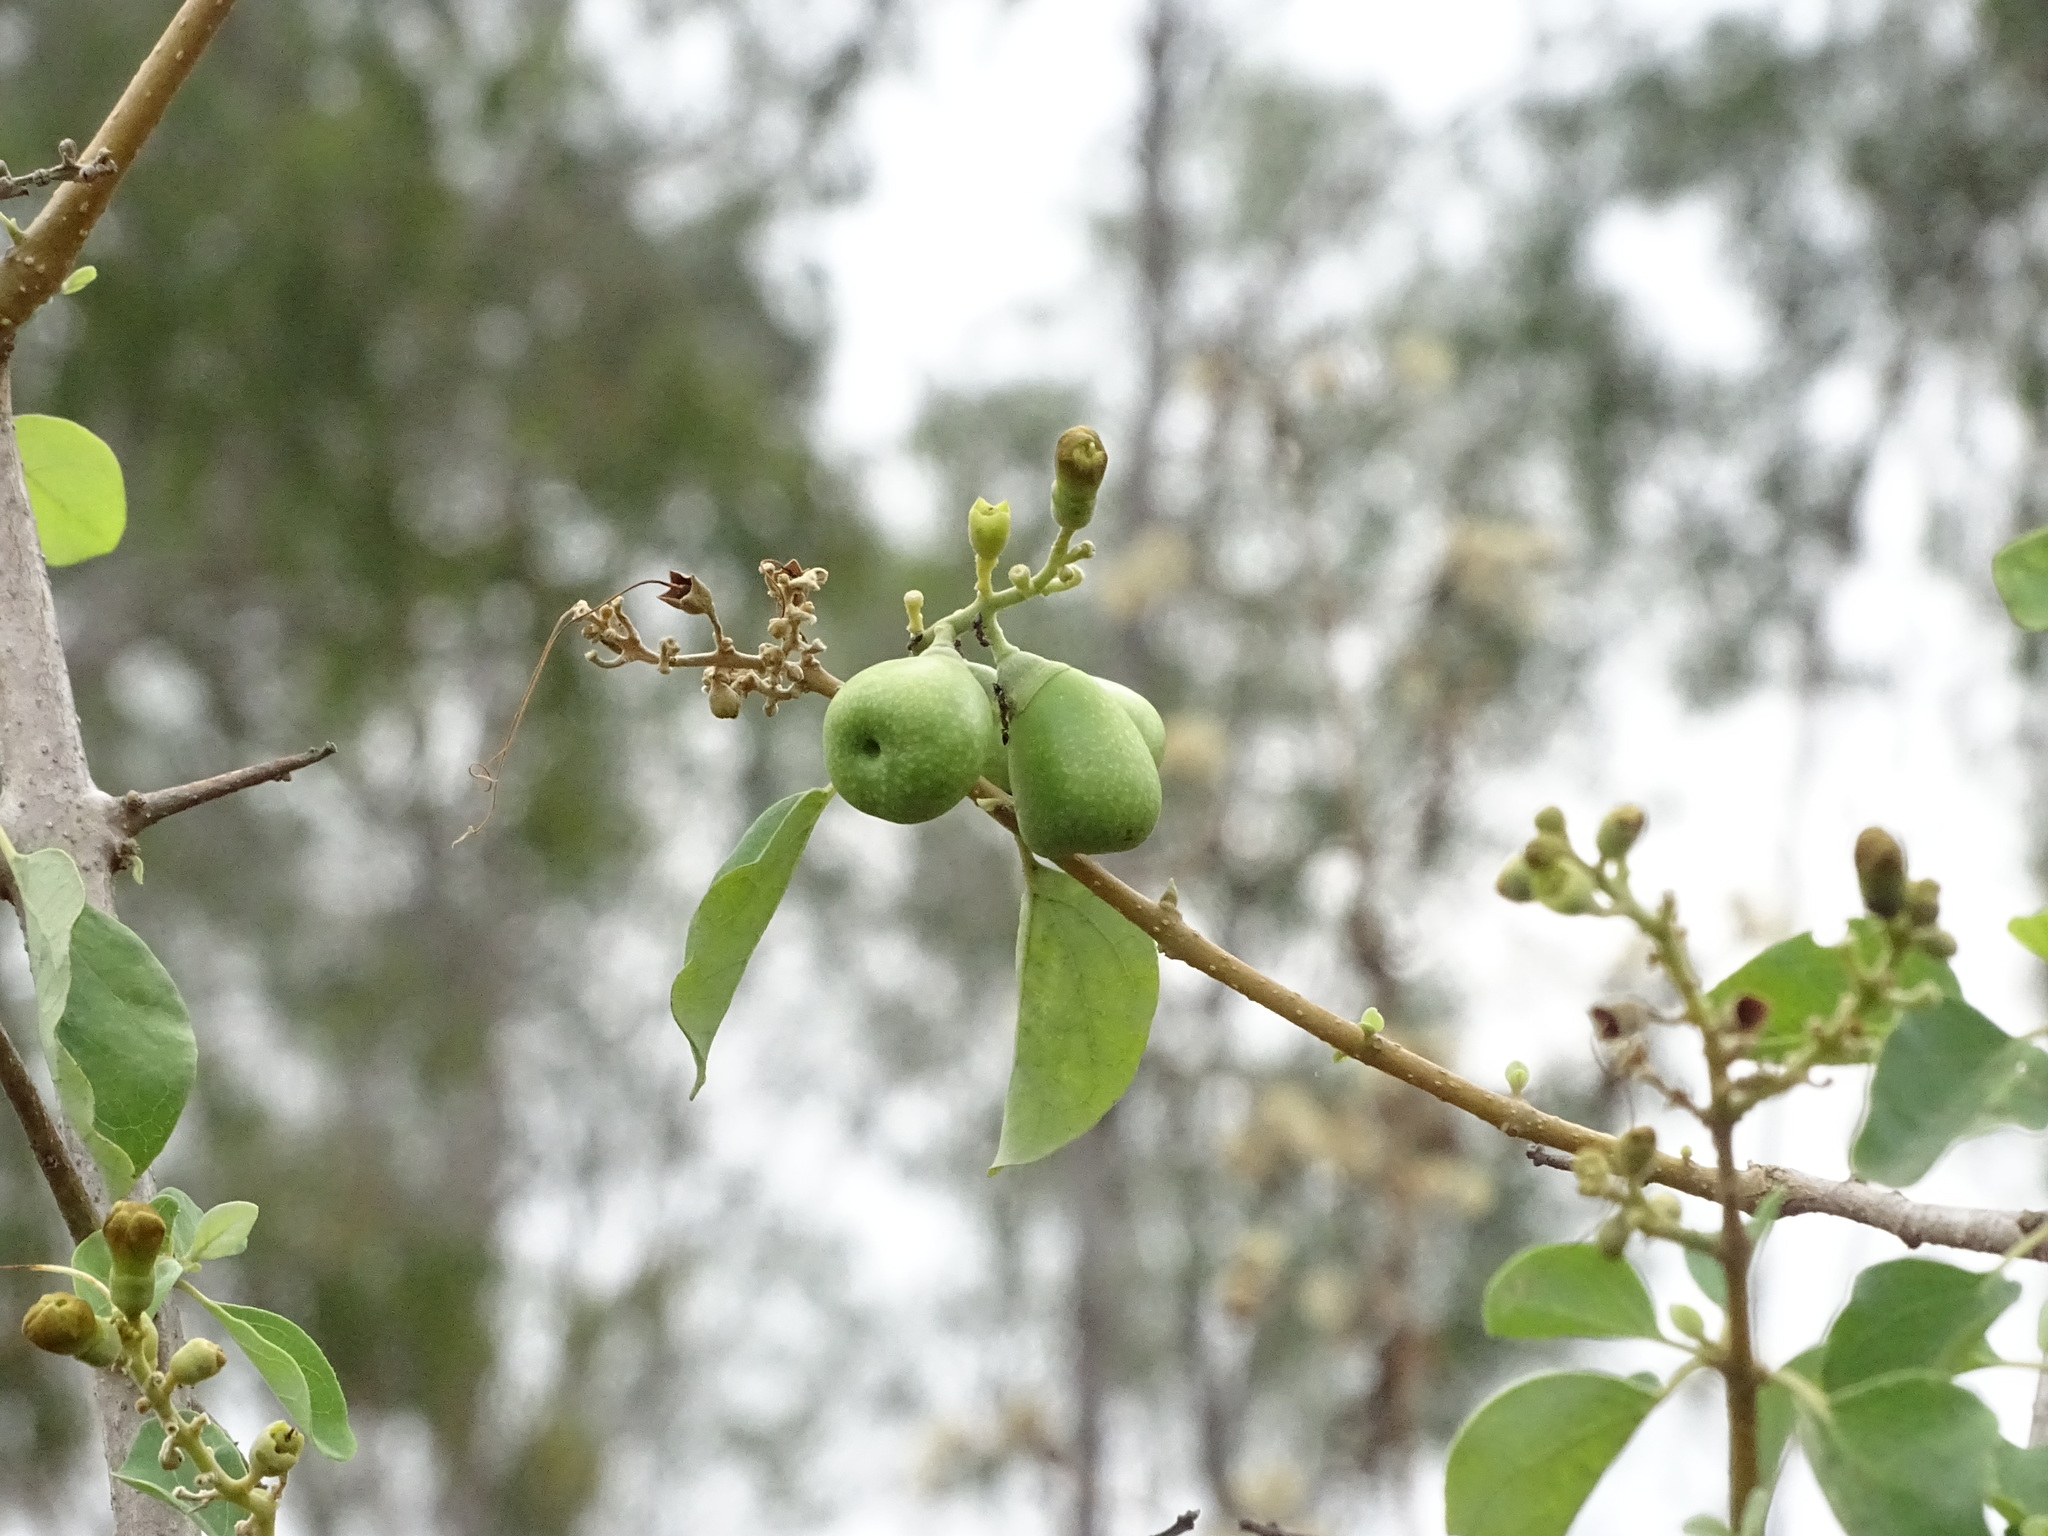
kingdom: Plantae
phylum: Tracheophyta
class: Magnoliopsida
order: Lamiales
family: Lamiaceae
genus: Gmelina
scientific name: Gmelina asiatica
